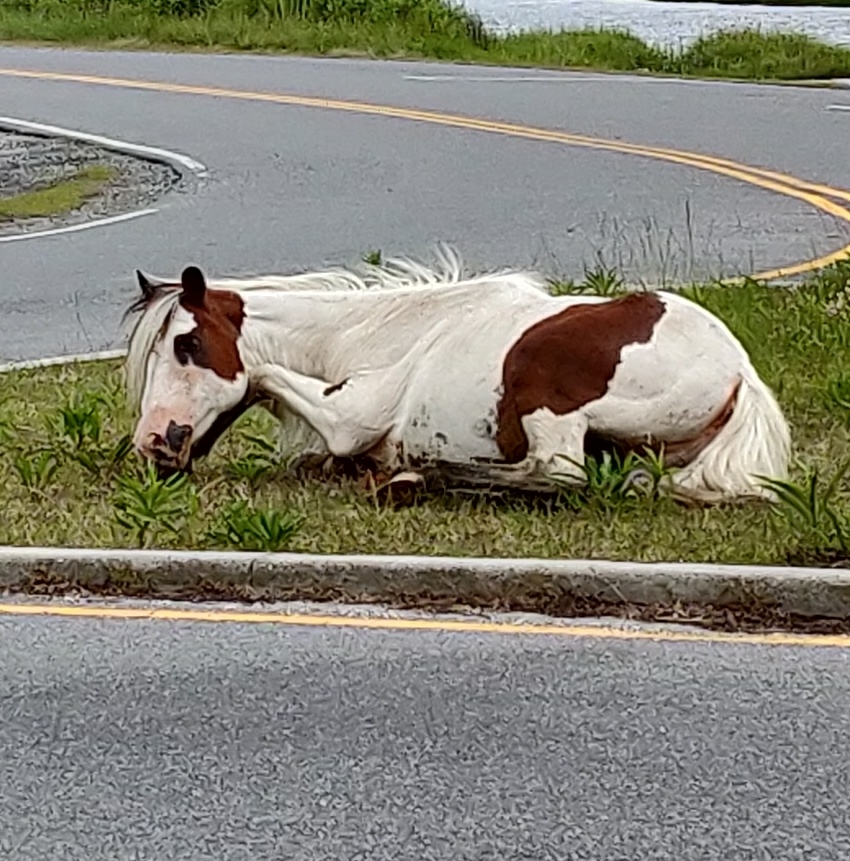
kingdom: Animalia
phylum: Chordata
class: Mammalia
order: Perissodactyla
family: Equidae
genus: Equus
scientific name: Equus caballus
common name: Horse
